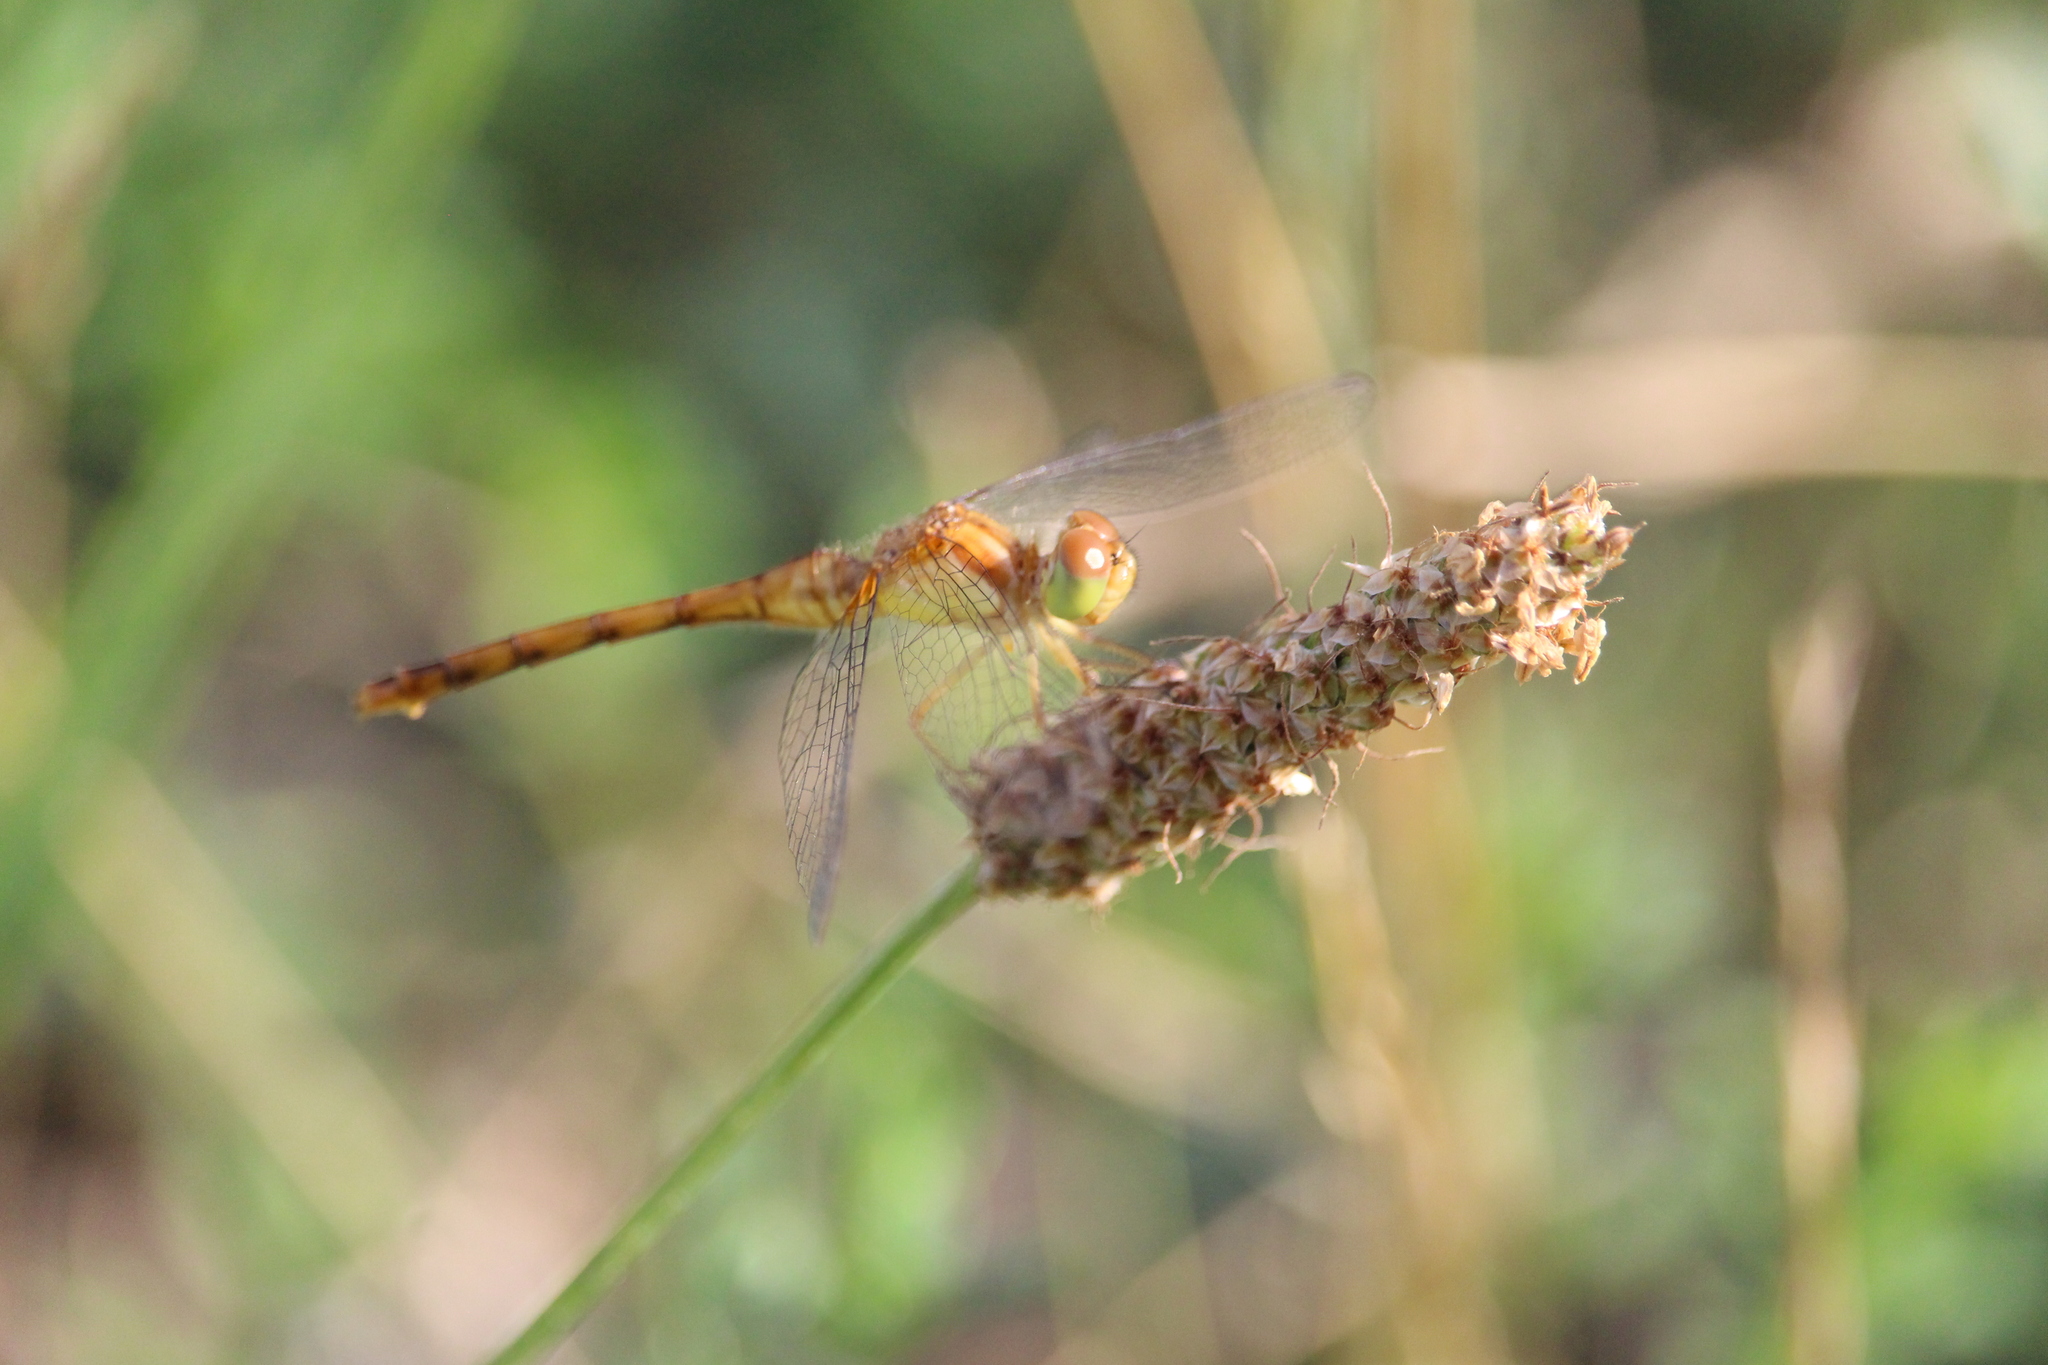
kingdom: Animalia
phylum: Arthropoda
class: Insecta
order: Odonata
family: Libellulidae
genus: Sympetrum
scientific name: Sympetrum vicinum
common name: Autumn meadowhawk
